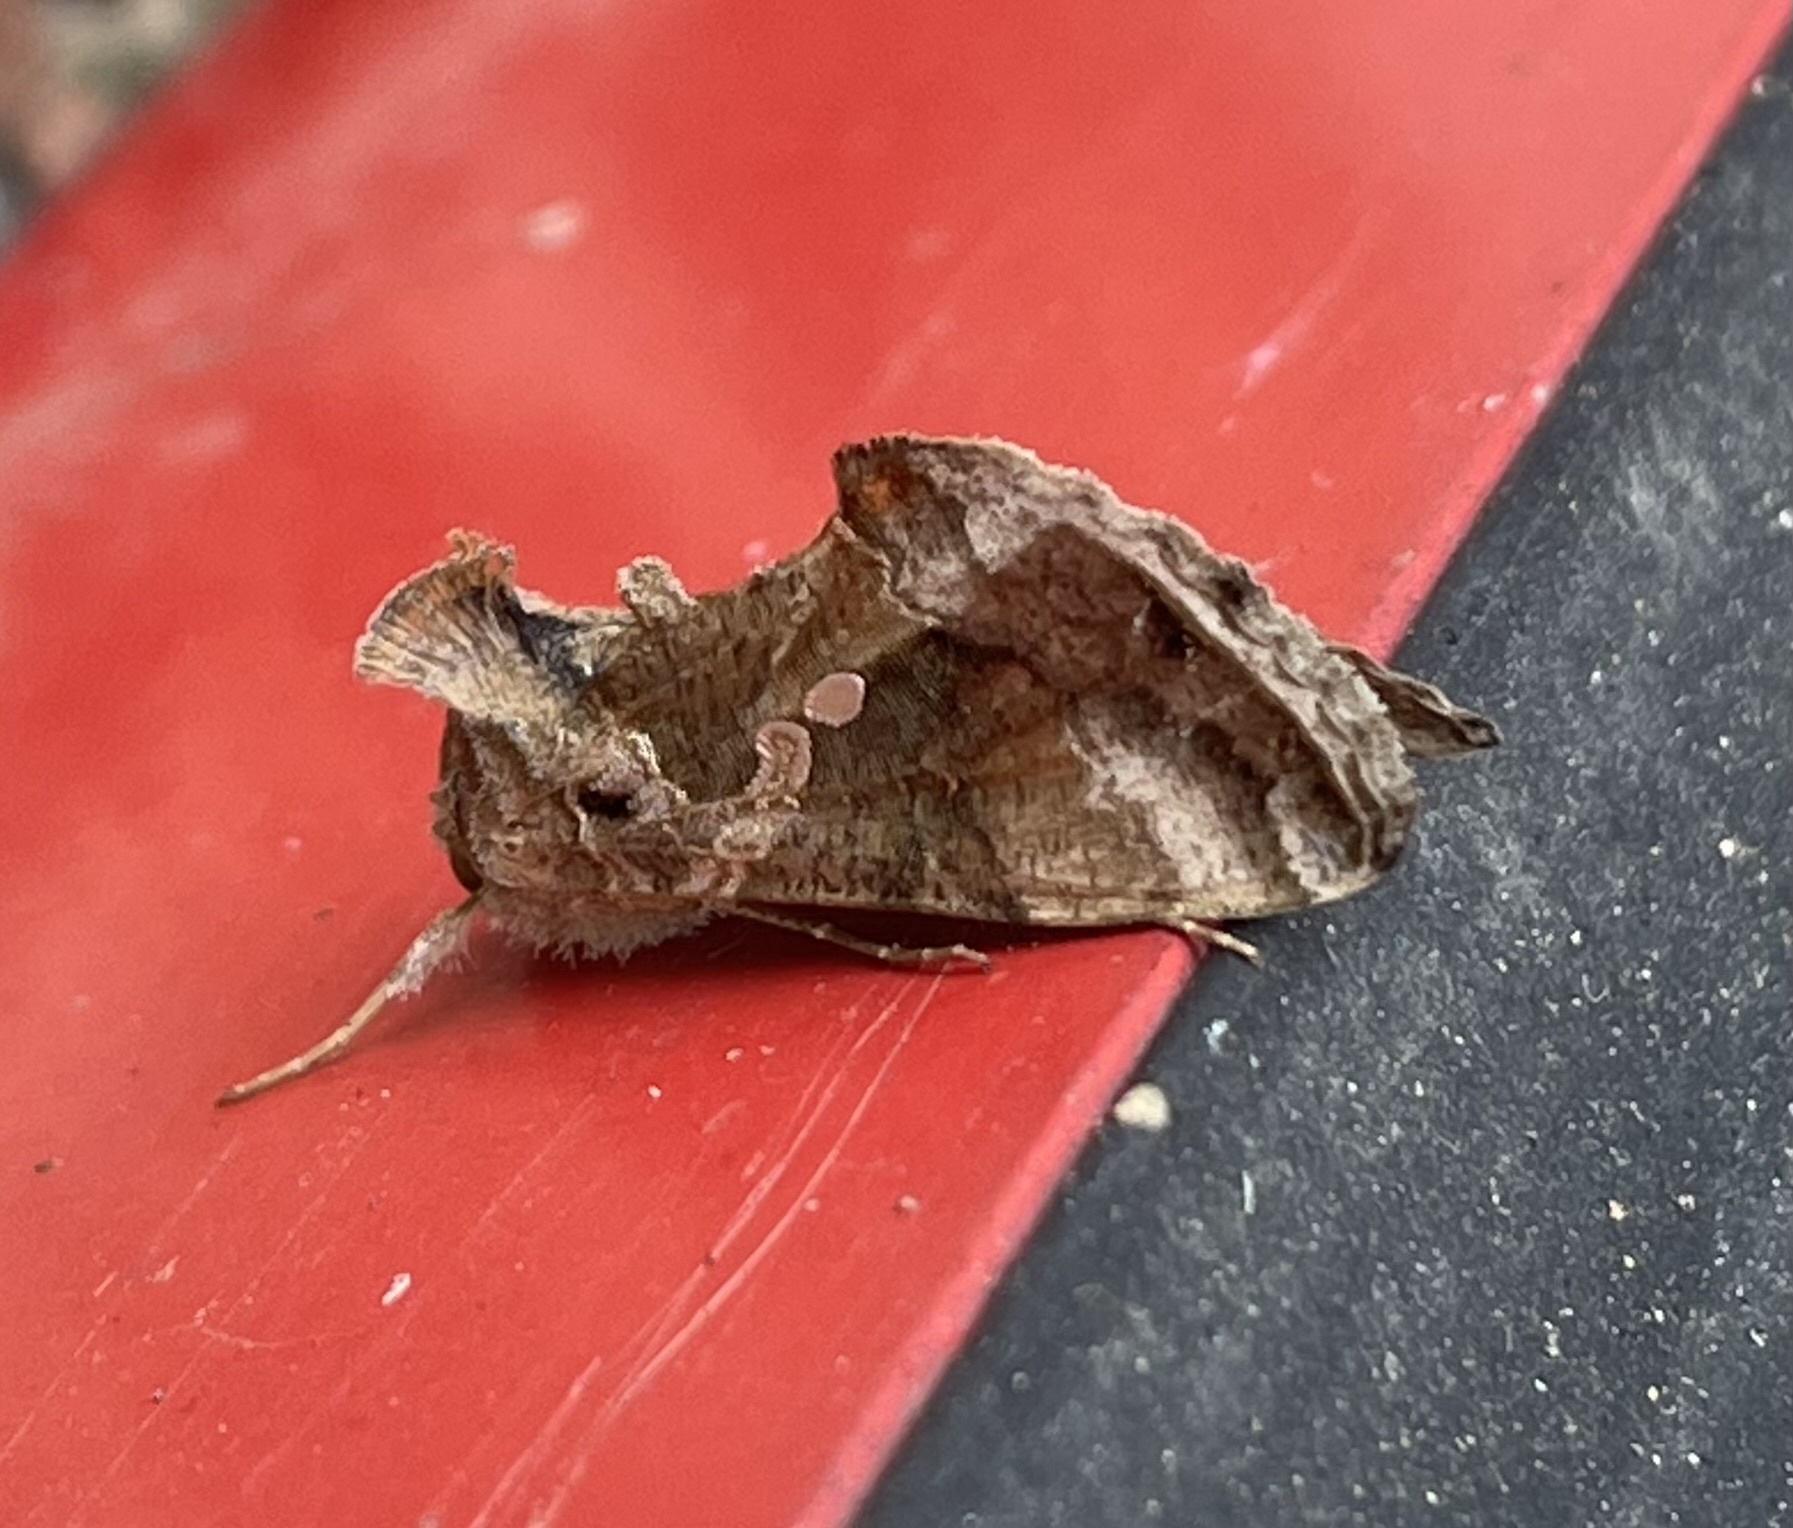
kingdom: Animalia
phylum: Arthropoda
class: Insecta
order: Lepidoptera
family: Noctuidae
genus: Chrysodeixis
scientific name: Chrysodeixis includens
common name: Cutworm moth
